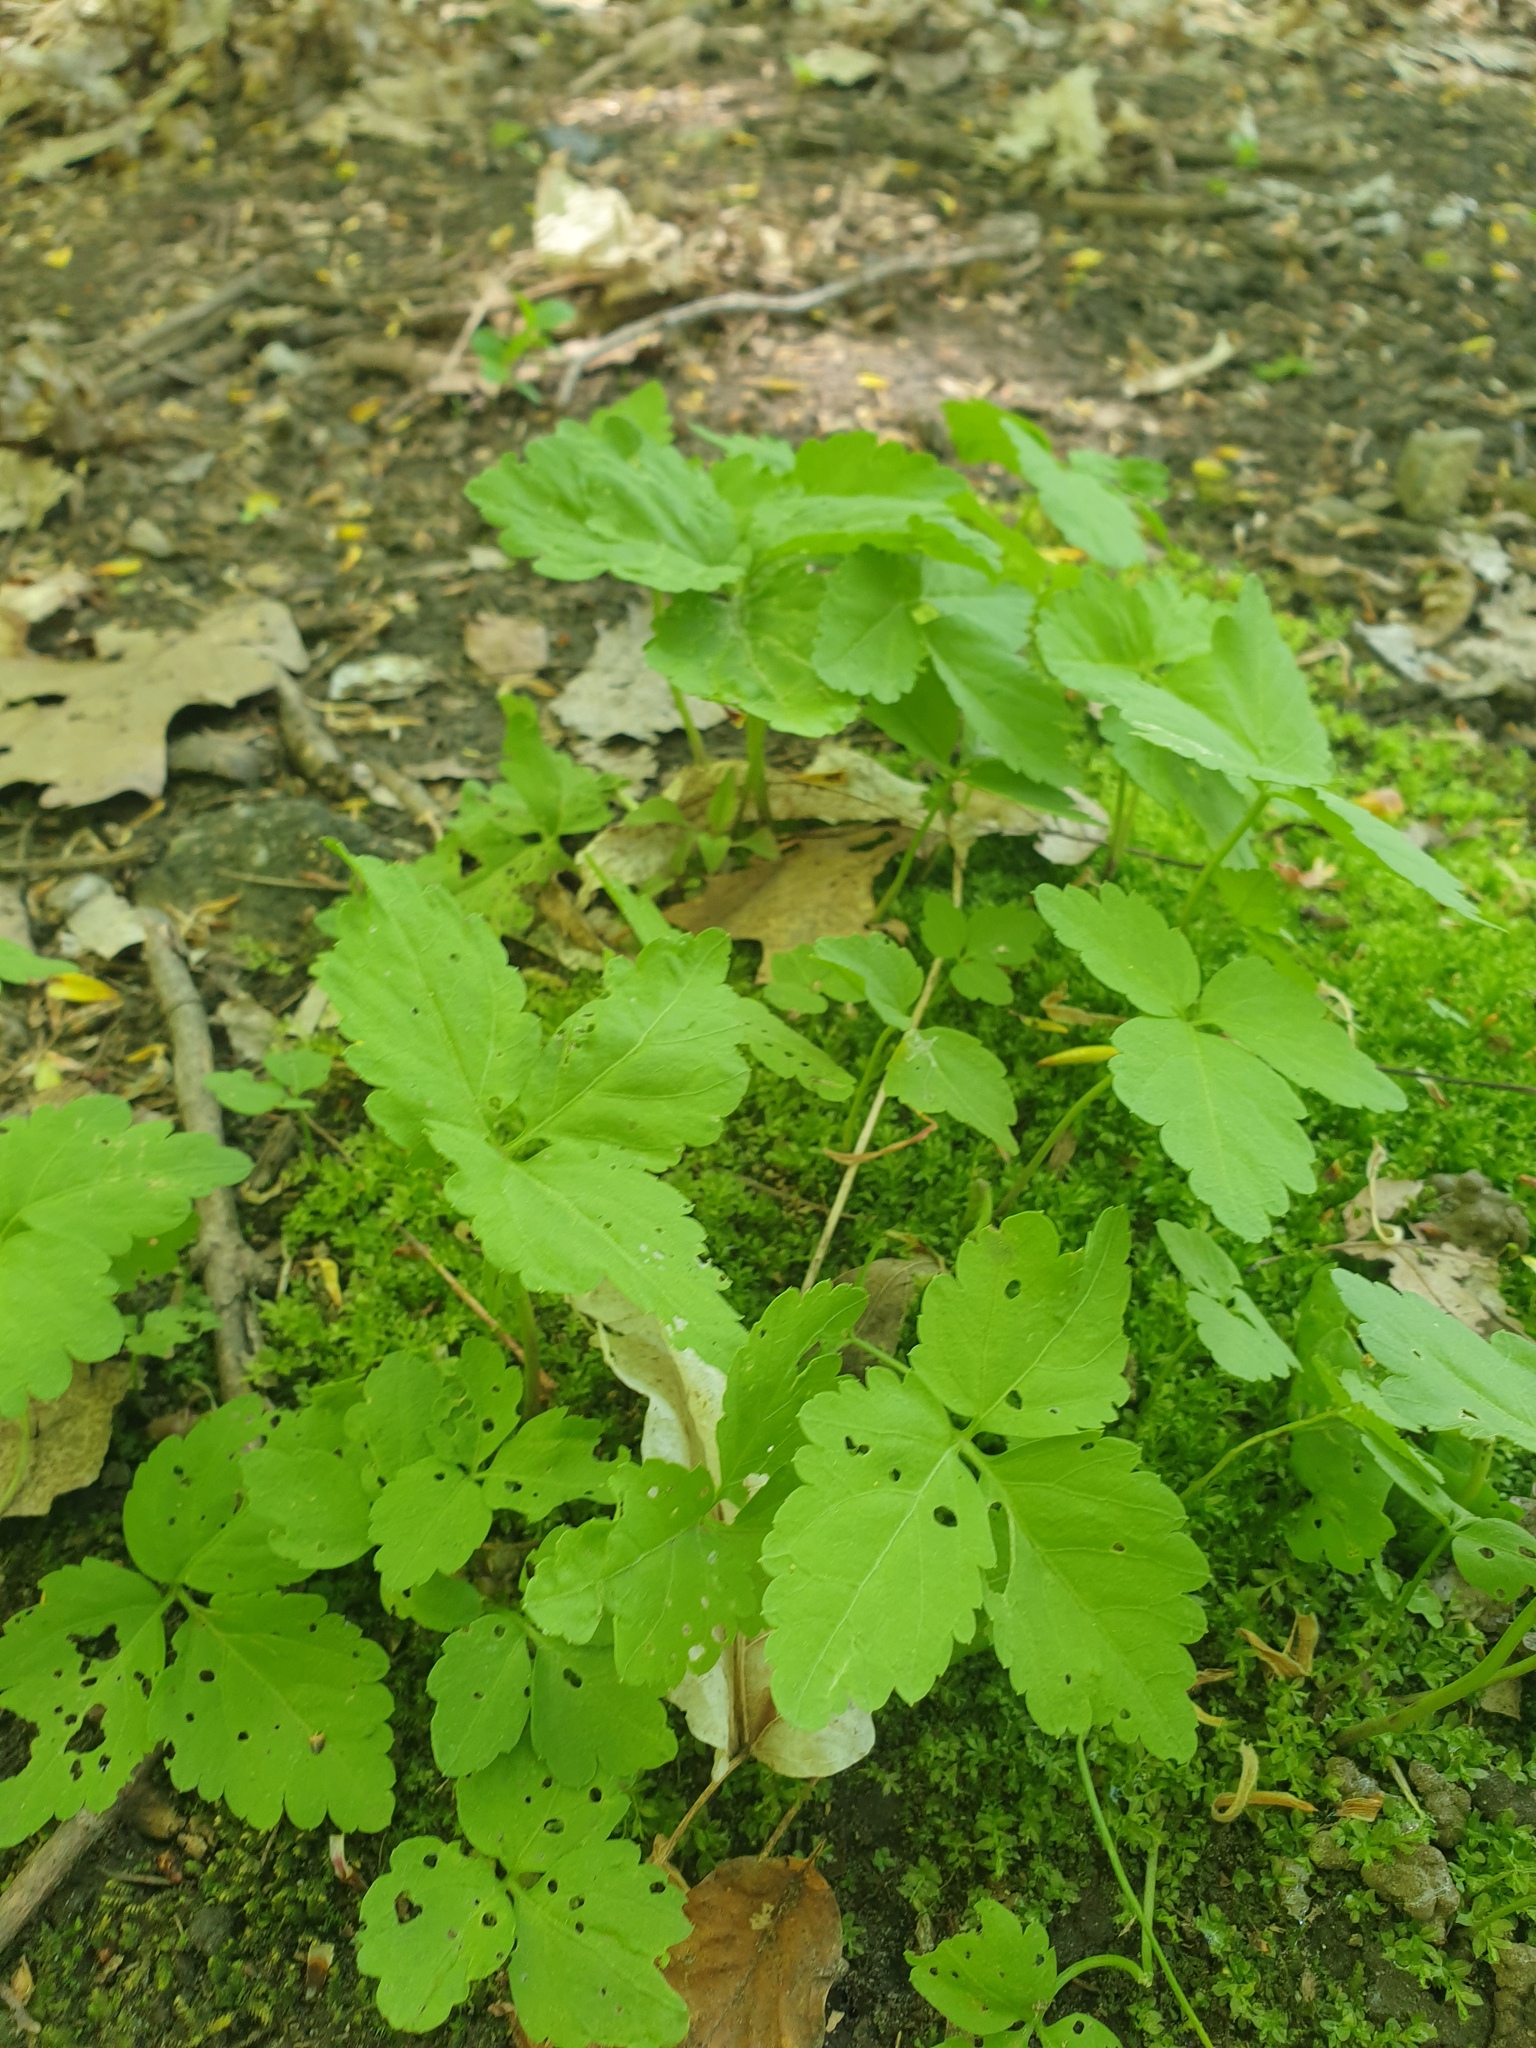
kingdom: Plantae
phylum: Tracheophyta
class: Magnoliopsida
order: Brassicales
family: Brassicaceae
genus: Cardamine
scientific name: Cardamine diphylla
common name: Broad-leaved toothwort
